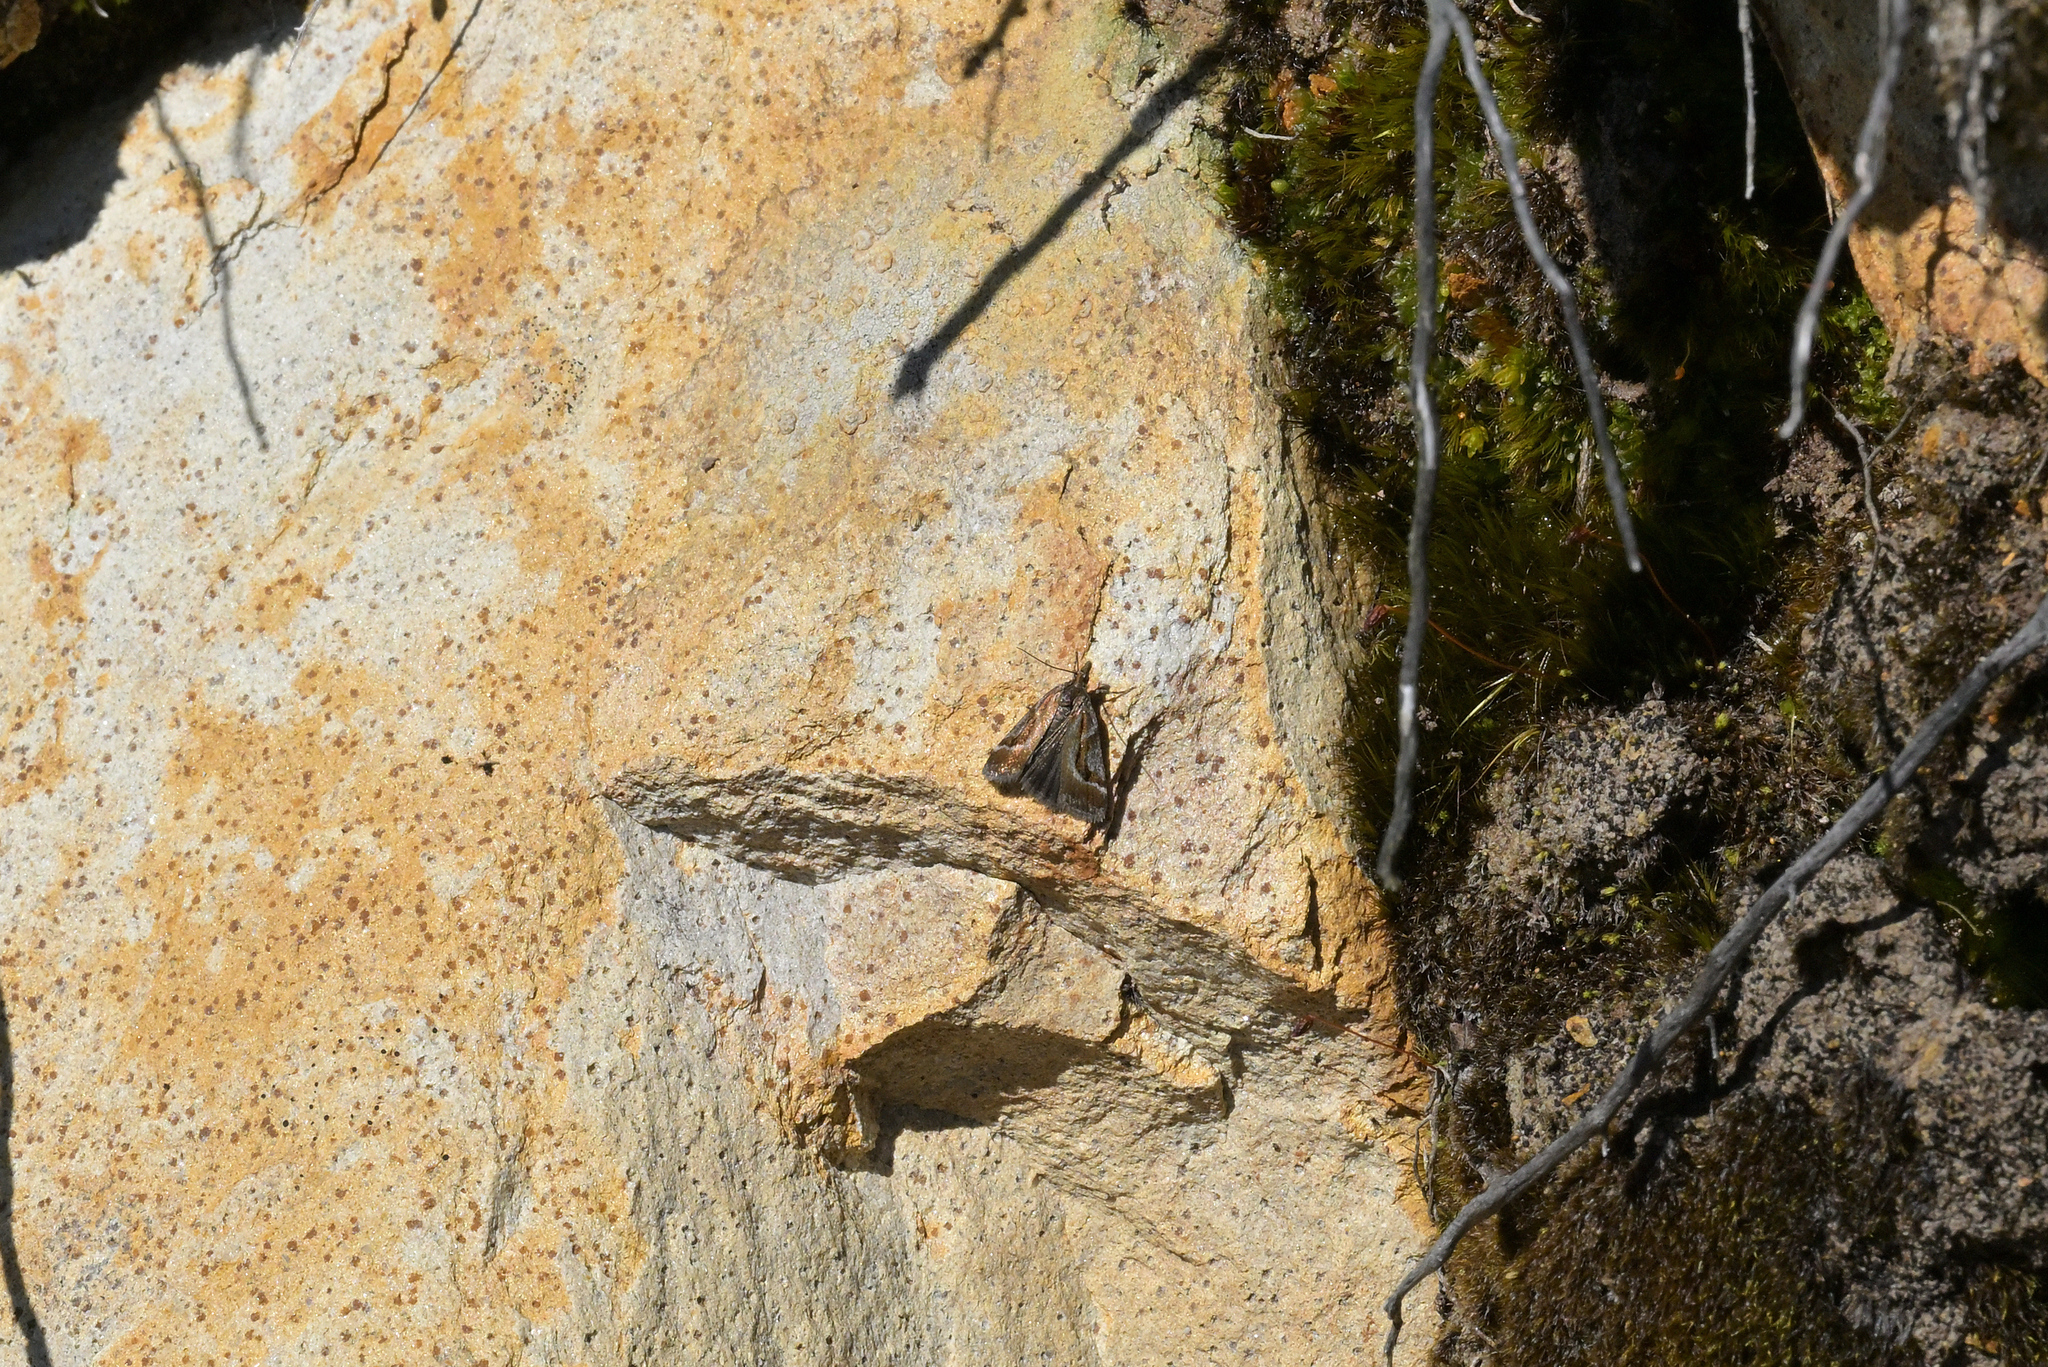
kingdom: Animalia
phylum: Arthropoda
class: Insecta
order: Lepidoptera
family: Crambidae
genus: Eudonia
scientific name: Eudonia hemicycla
